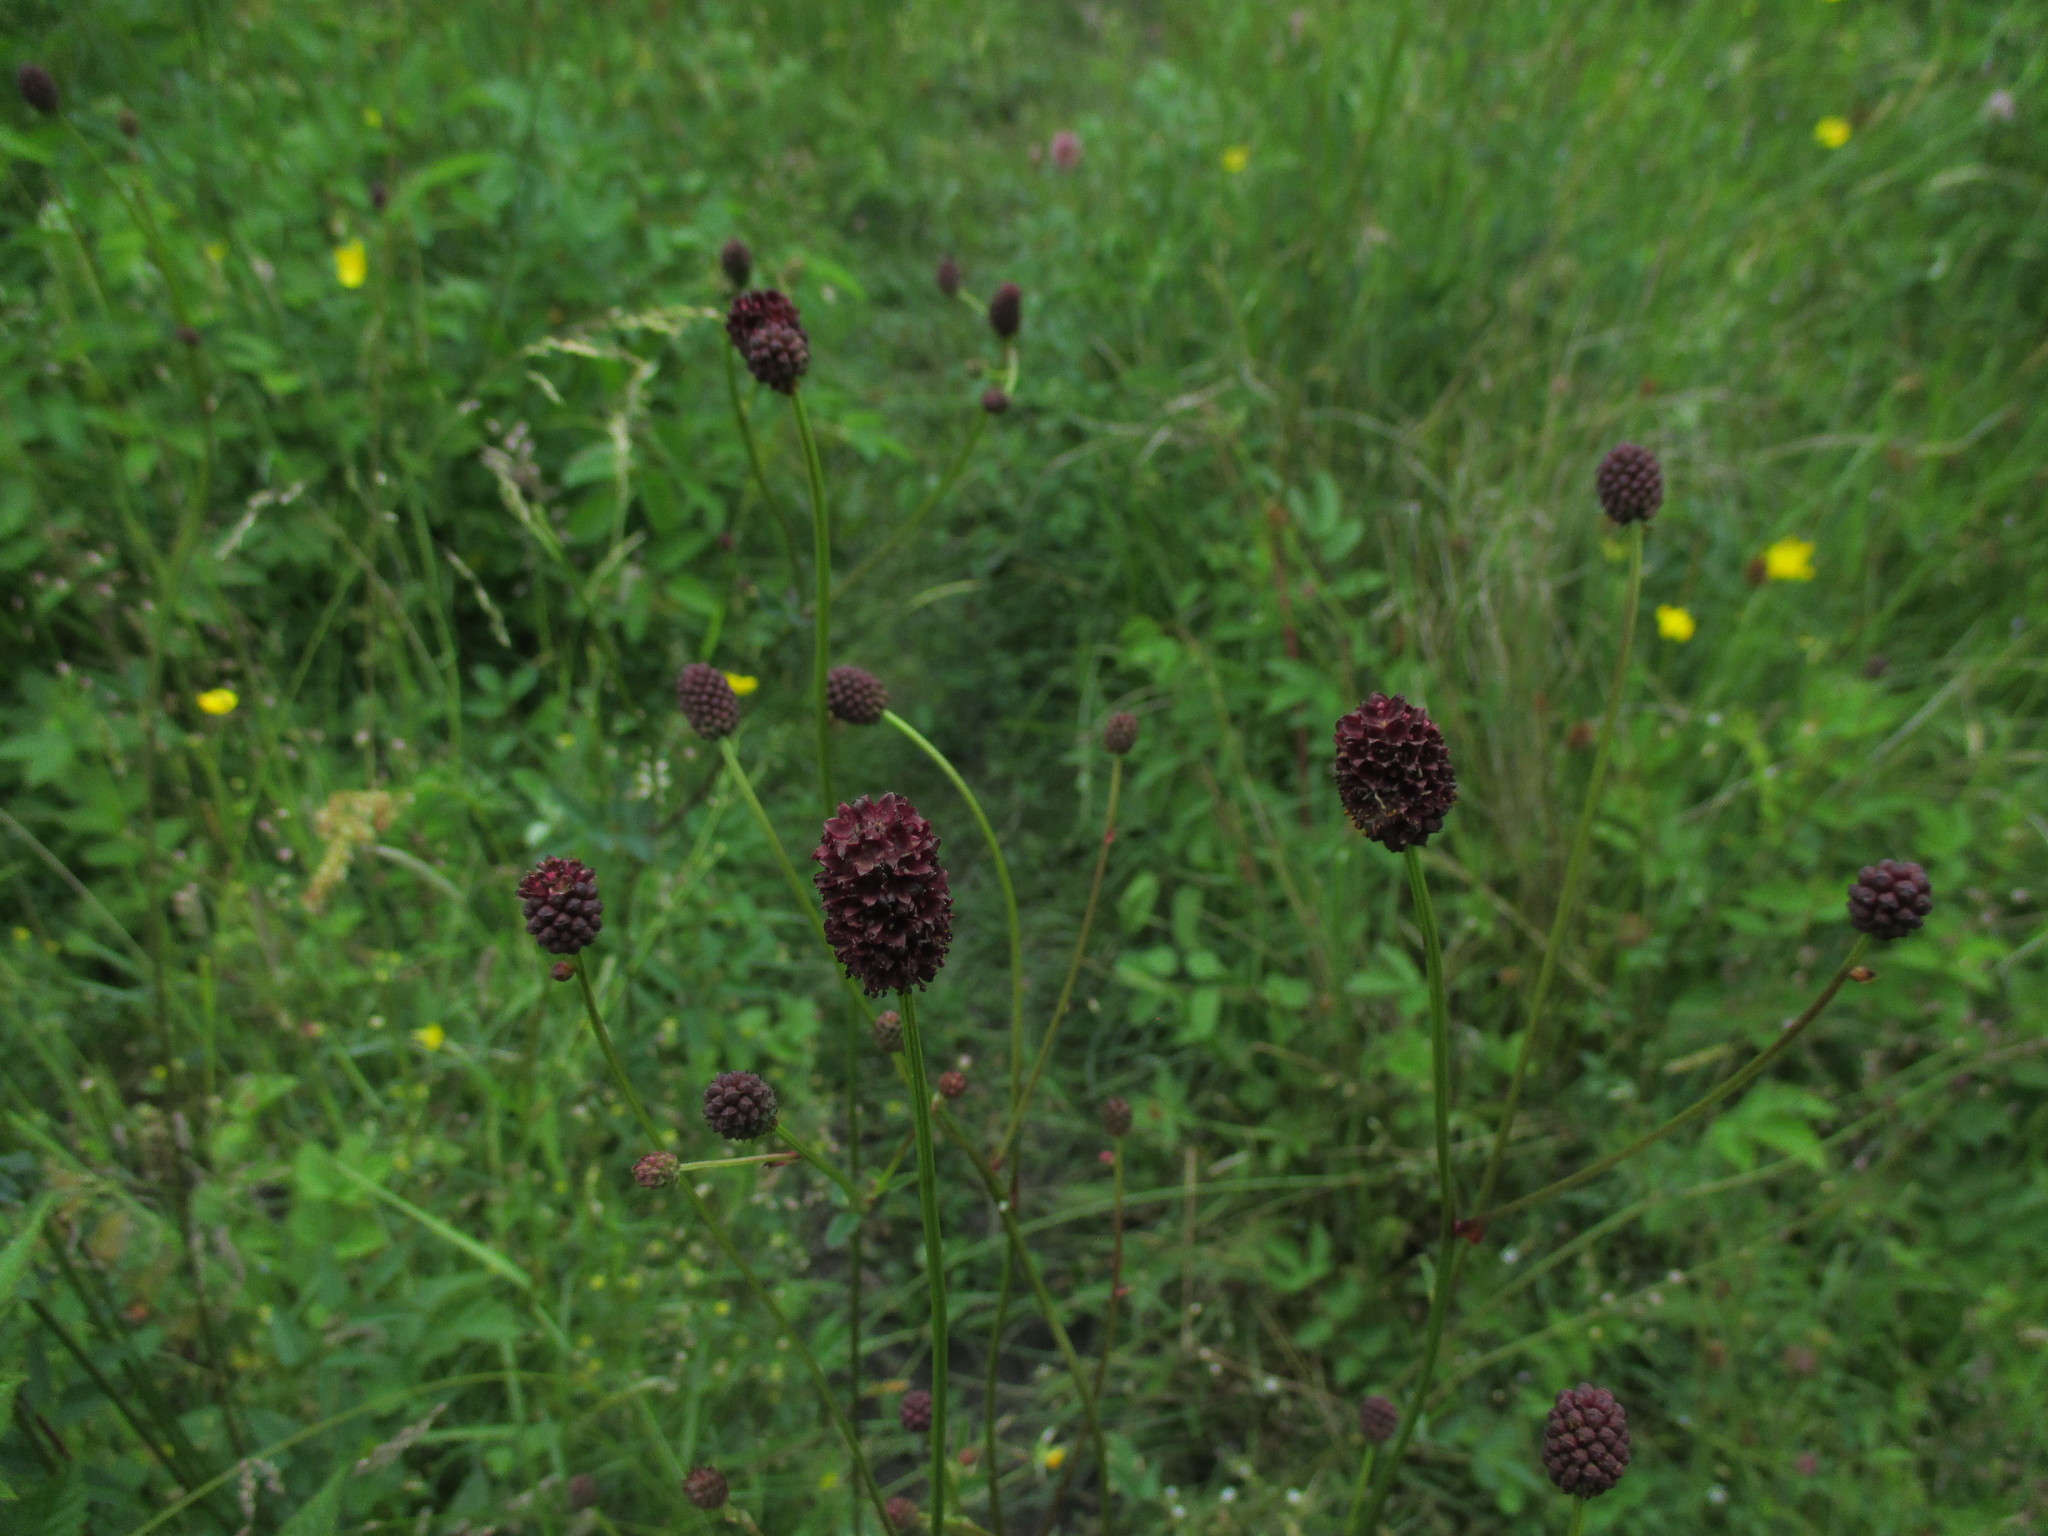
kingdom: Plantae
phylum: Tracheophyta
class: Magnoliopsida
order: Rosales
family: Rosaceae
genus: Sanguisorba
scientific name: Sanguisorba officinalis
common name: Great burnet
